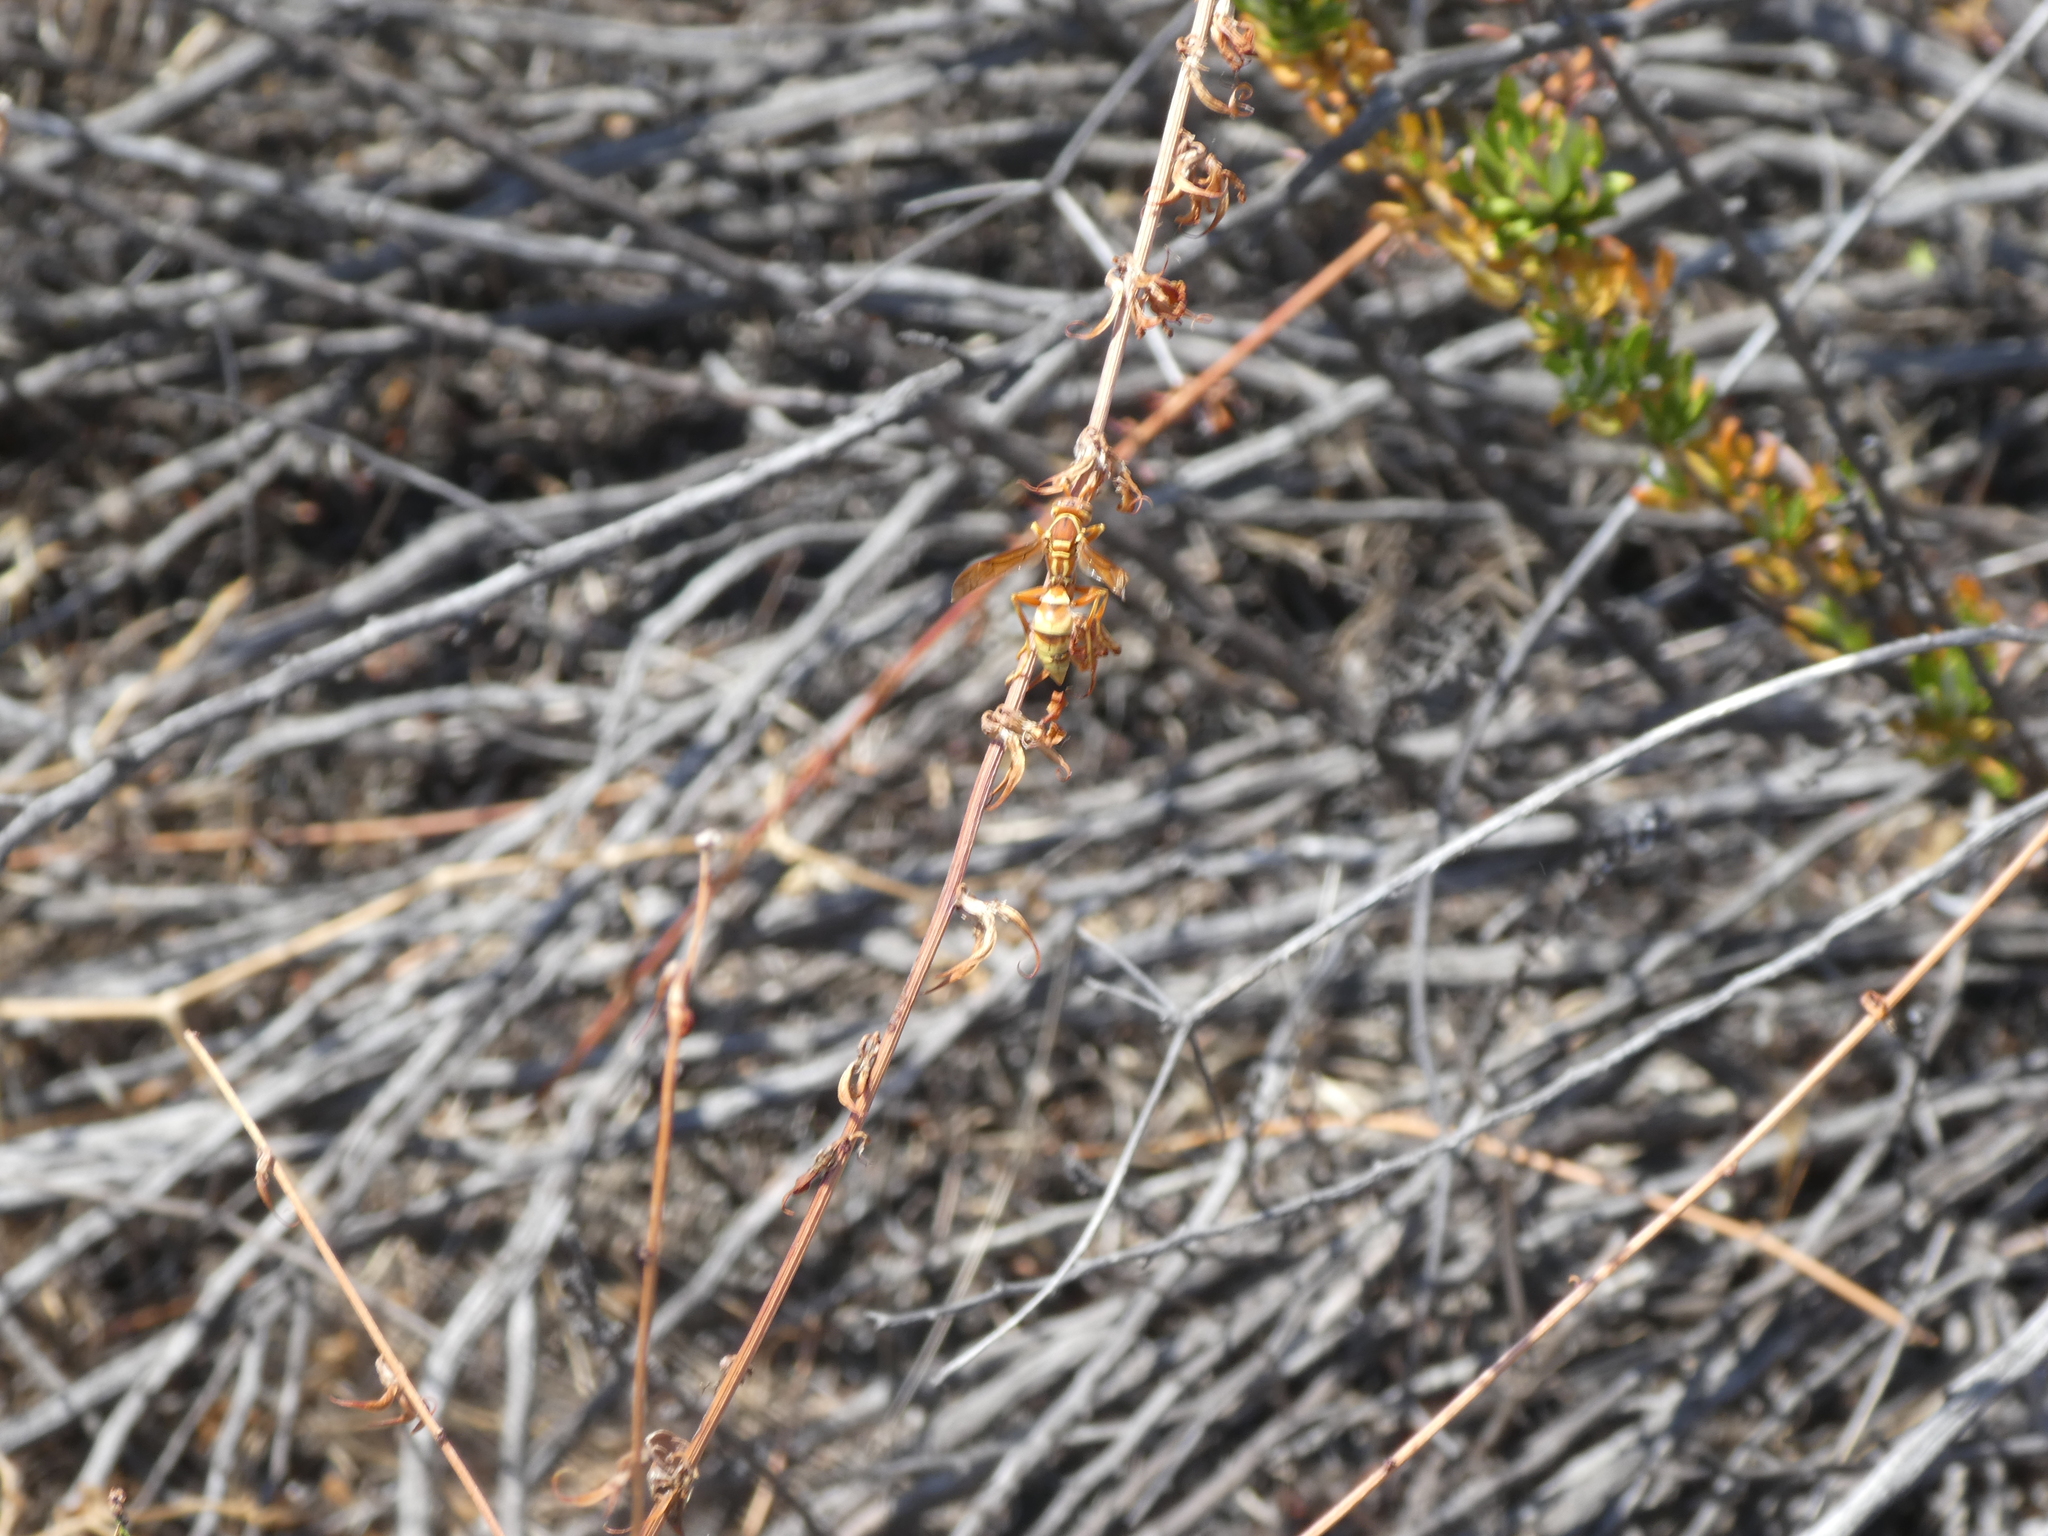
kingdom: Animalia
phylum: Arthropoda
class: Insecta
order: Hymenoptera
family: Eumenidae
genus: Polistes
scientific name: Polistes dorsalis
